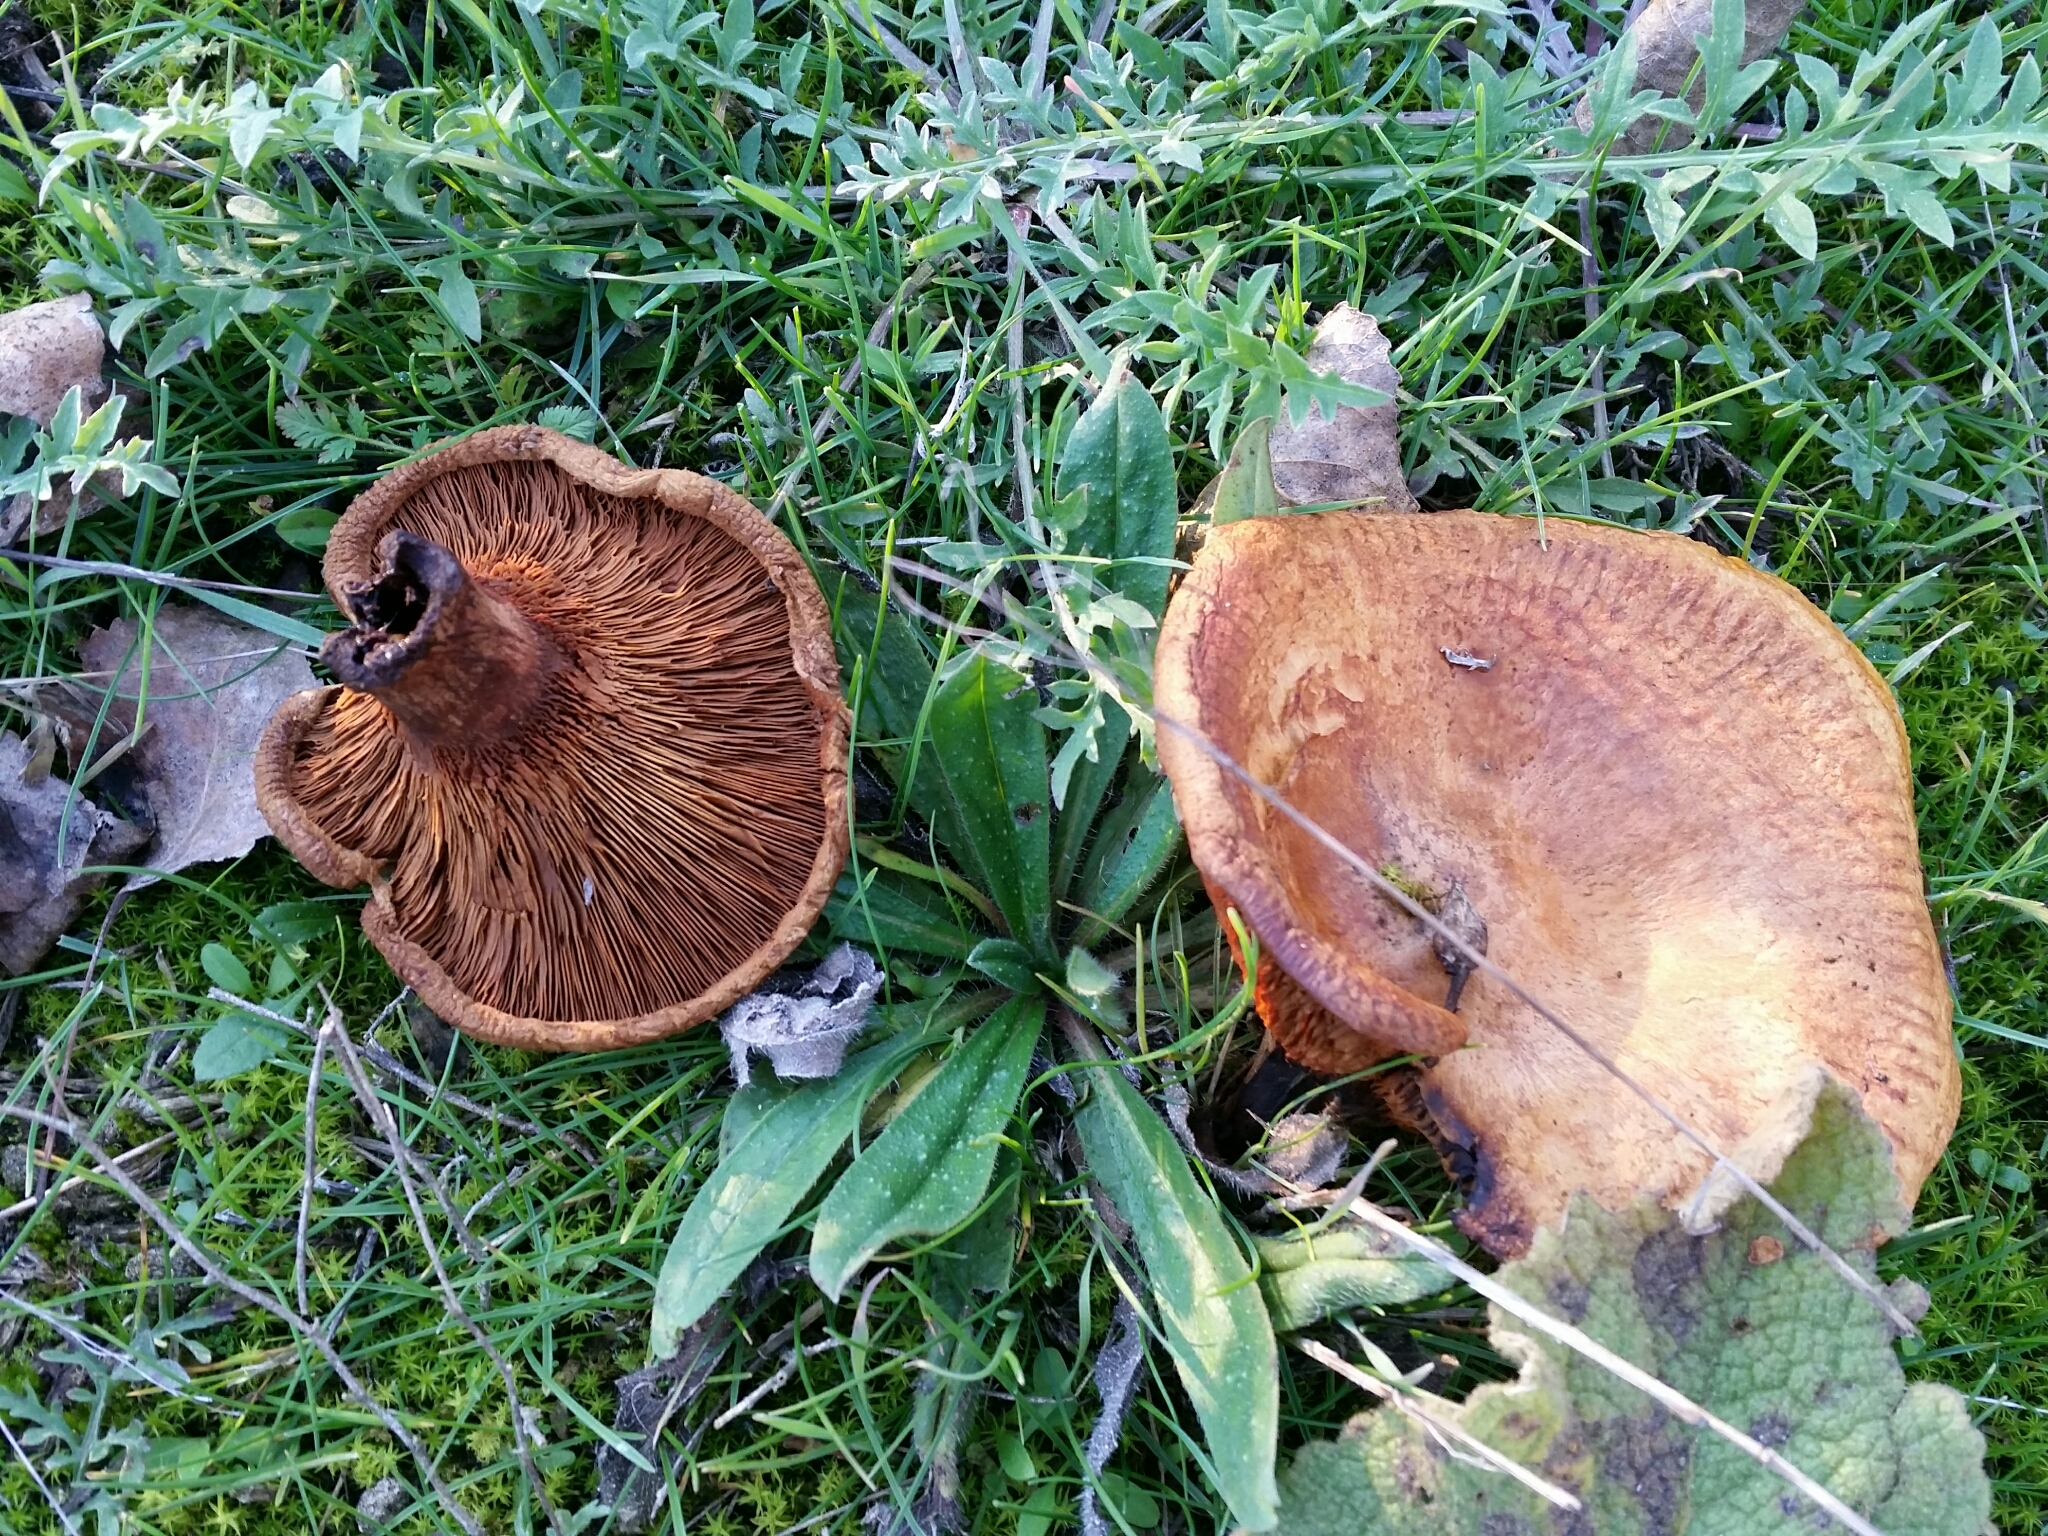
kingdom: Fungi
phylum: Basidiomycota
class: Agaricomycetes
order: Boletales
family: Paxillaceae
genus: Paxillus
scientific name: Paxillus involutus
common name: Brown roll rim
